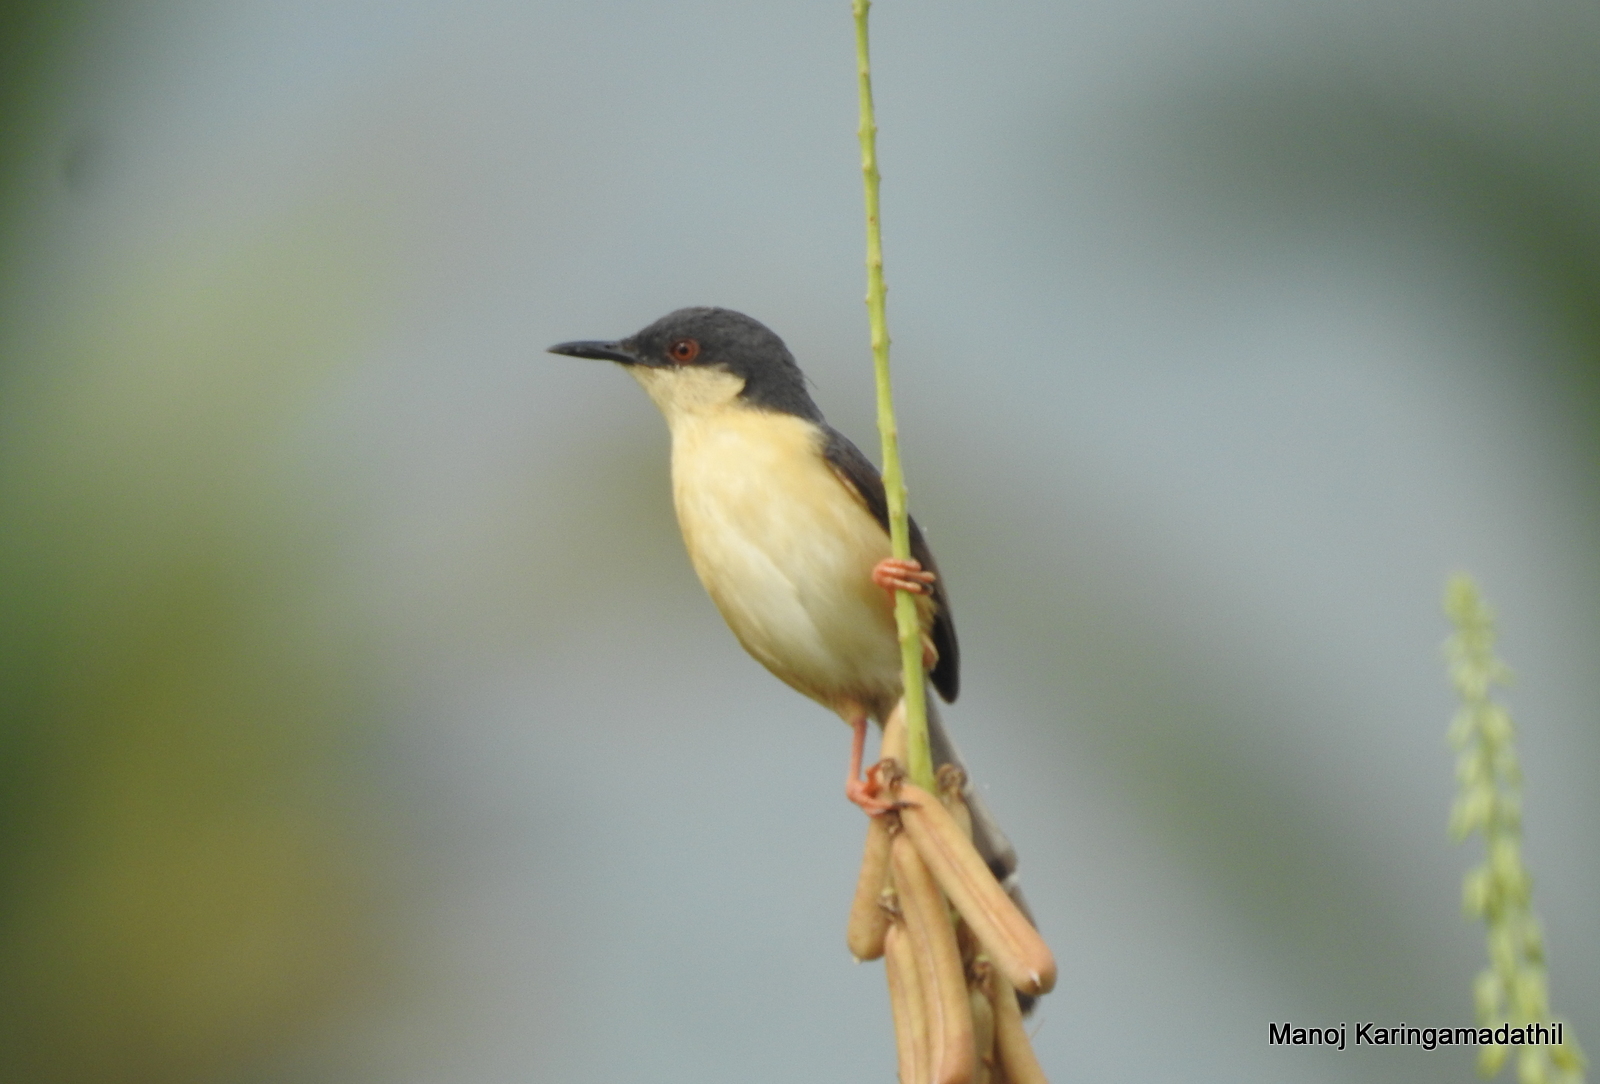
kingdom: Animalia
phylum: Chordata
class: Aves
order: Passeriformes
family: Cisticolidae
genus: Prinia
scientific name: Prinia socialis
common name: Ashy prinia
